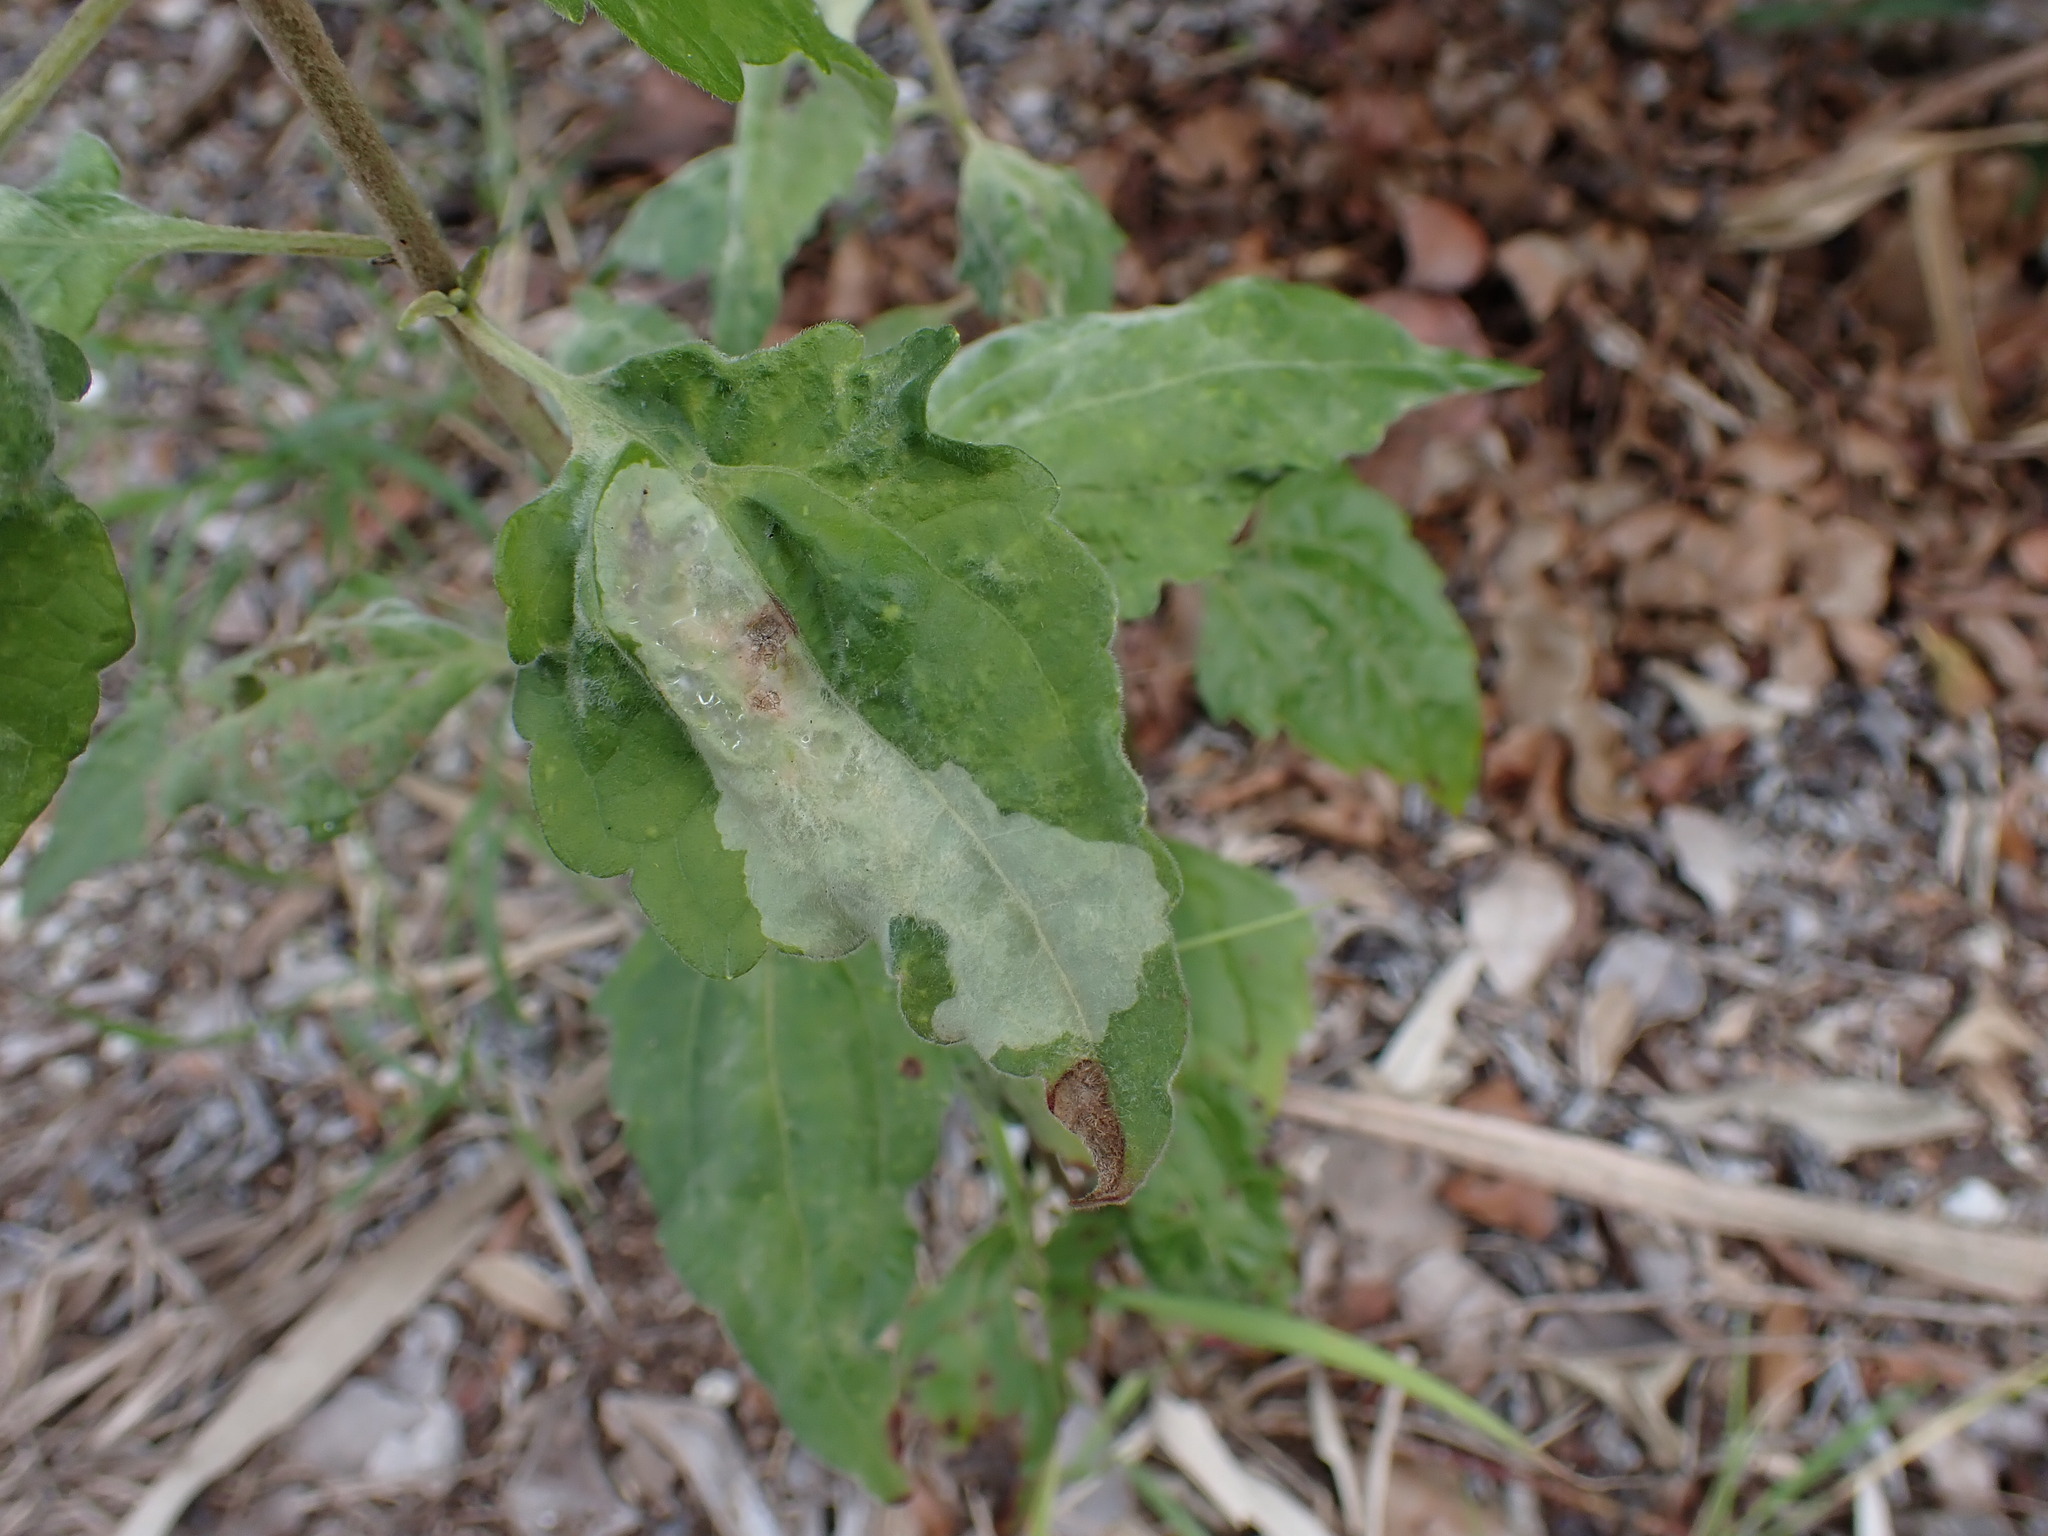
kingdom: Animalia
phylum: Arthropoda
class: Insecta
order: Diptera
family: Agromyzidae
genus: Calycomyza
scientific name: Calycomyza eupatorivora
